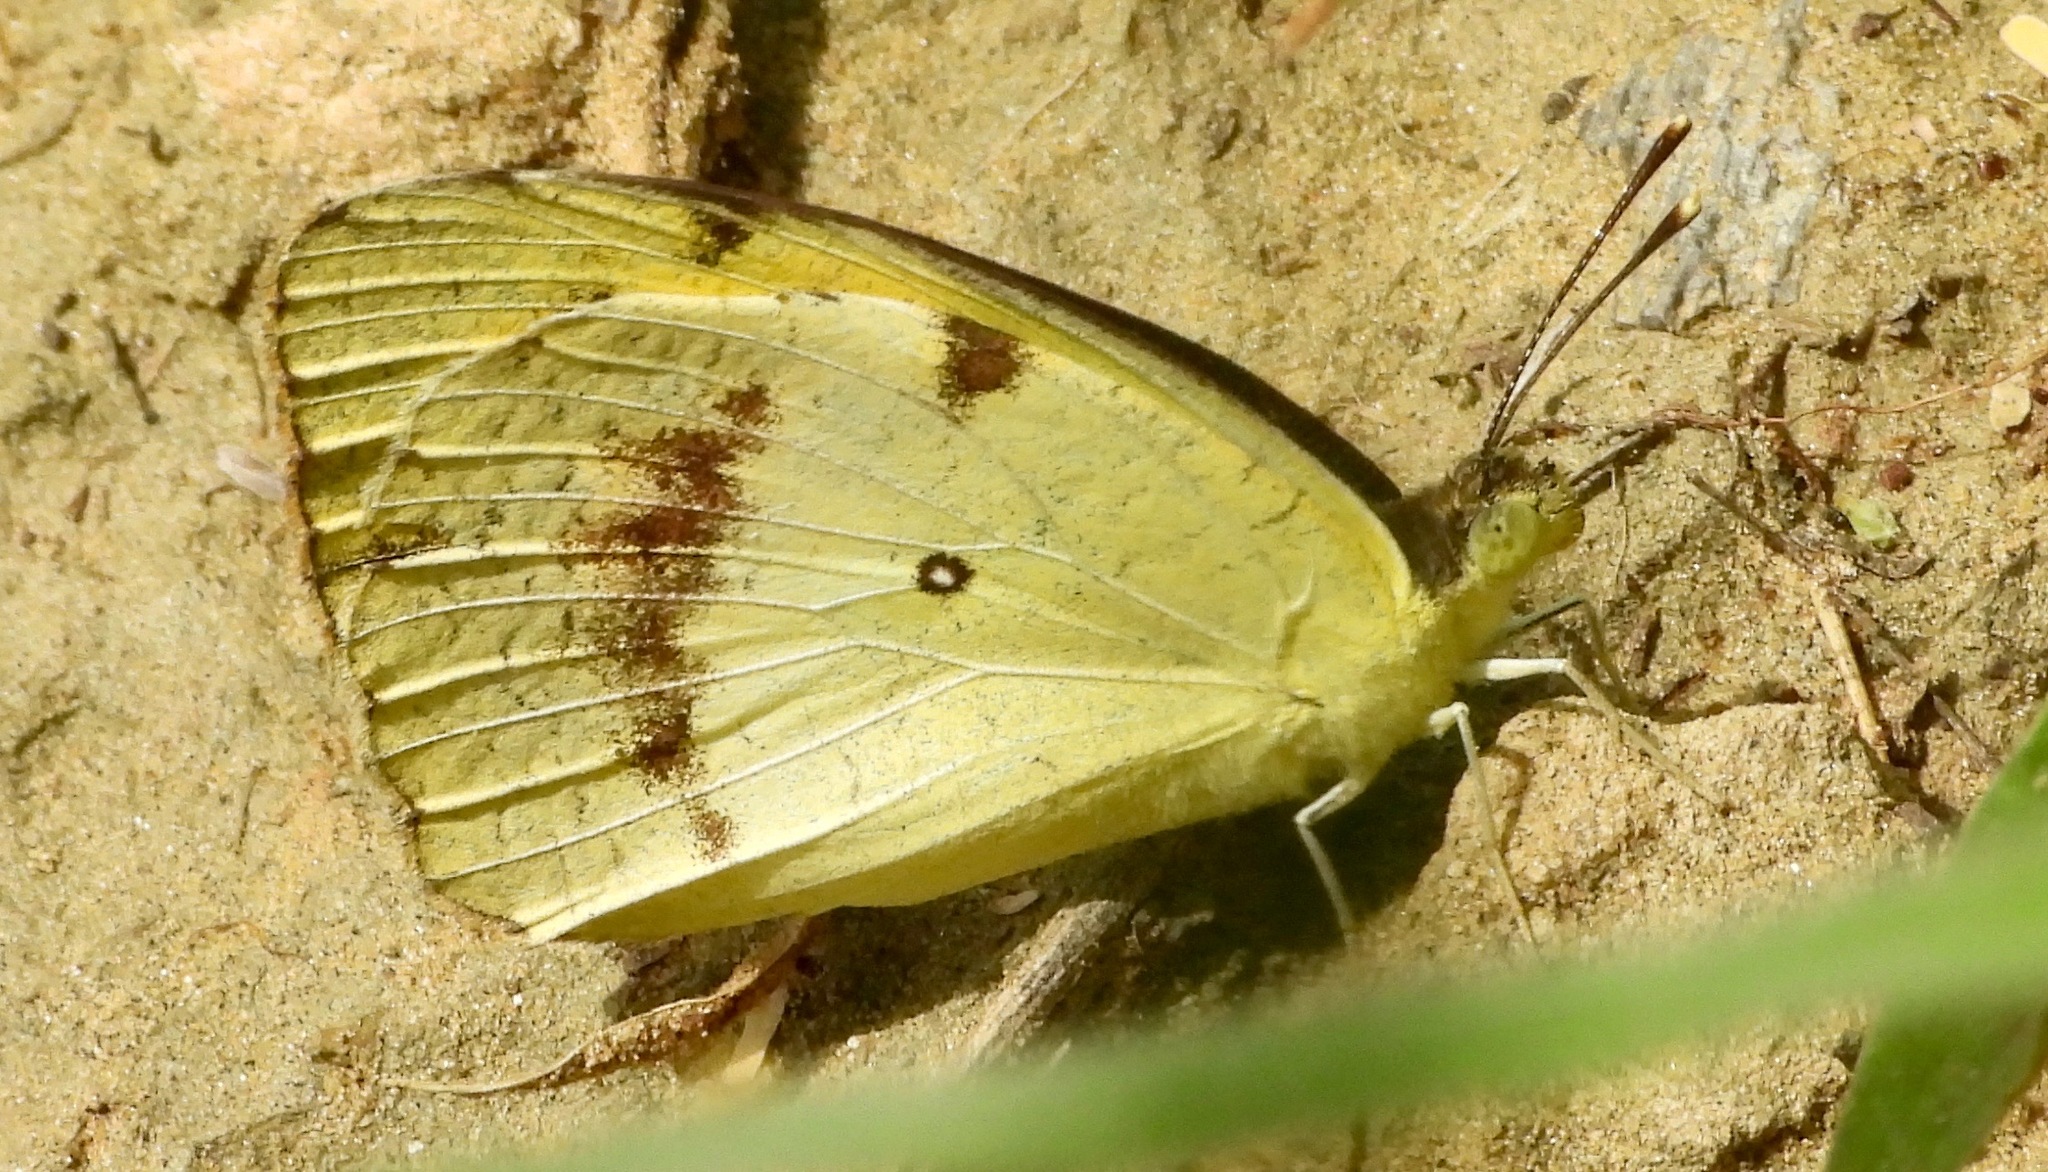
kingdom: Animalia
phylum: Arthropoda
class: Insecta
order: Lepidoptera
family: Pieridae
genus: Ixias
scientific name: Ixias marianne
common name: White orange tip
